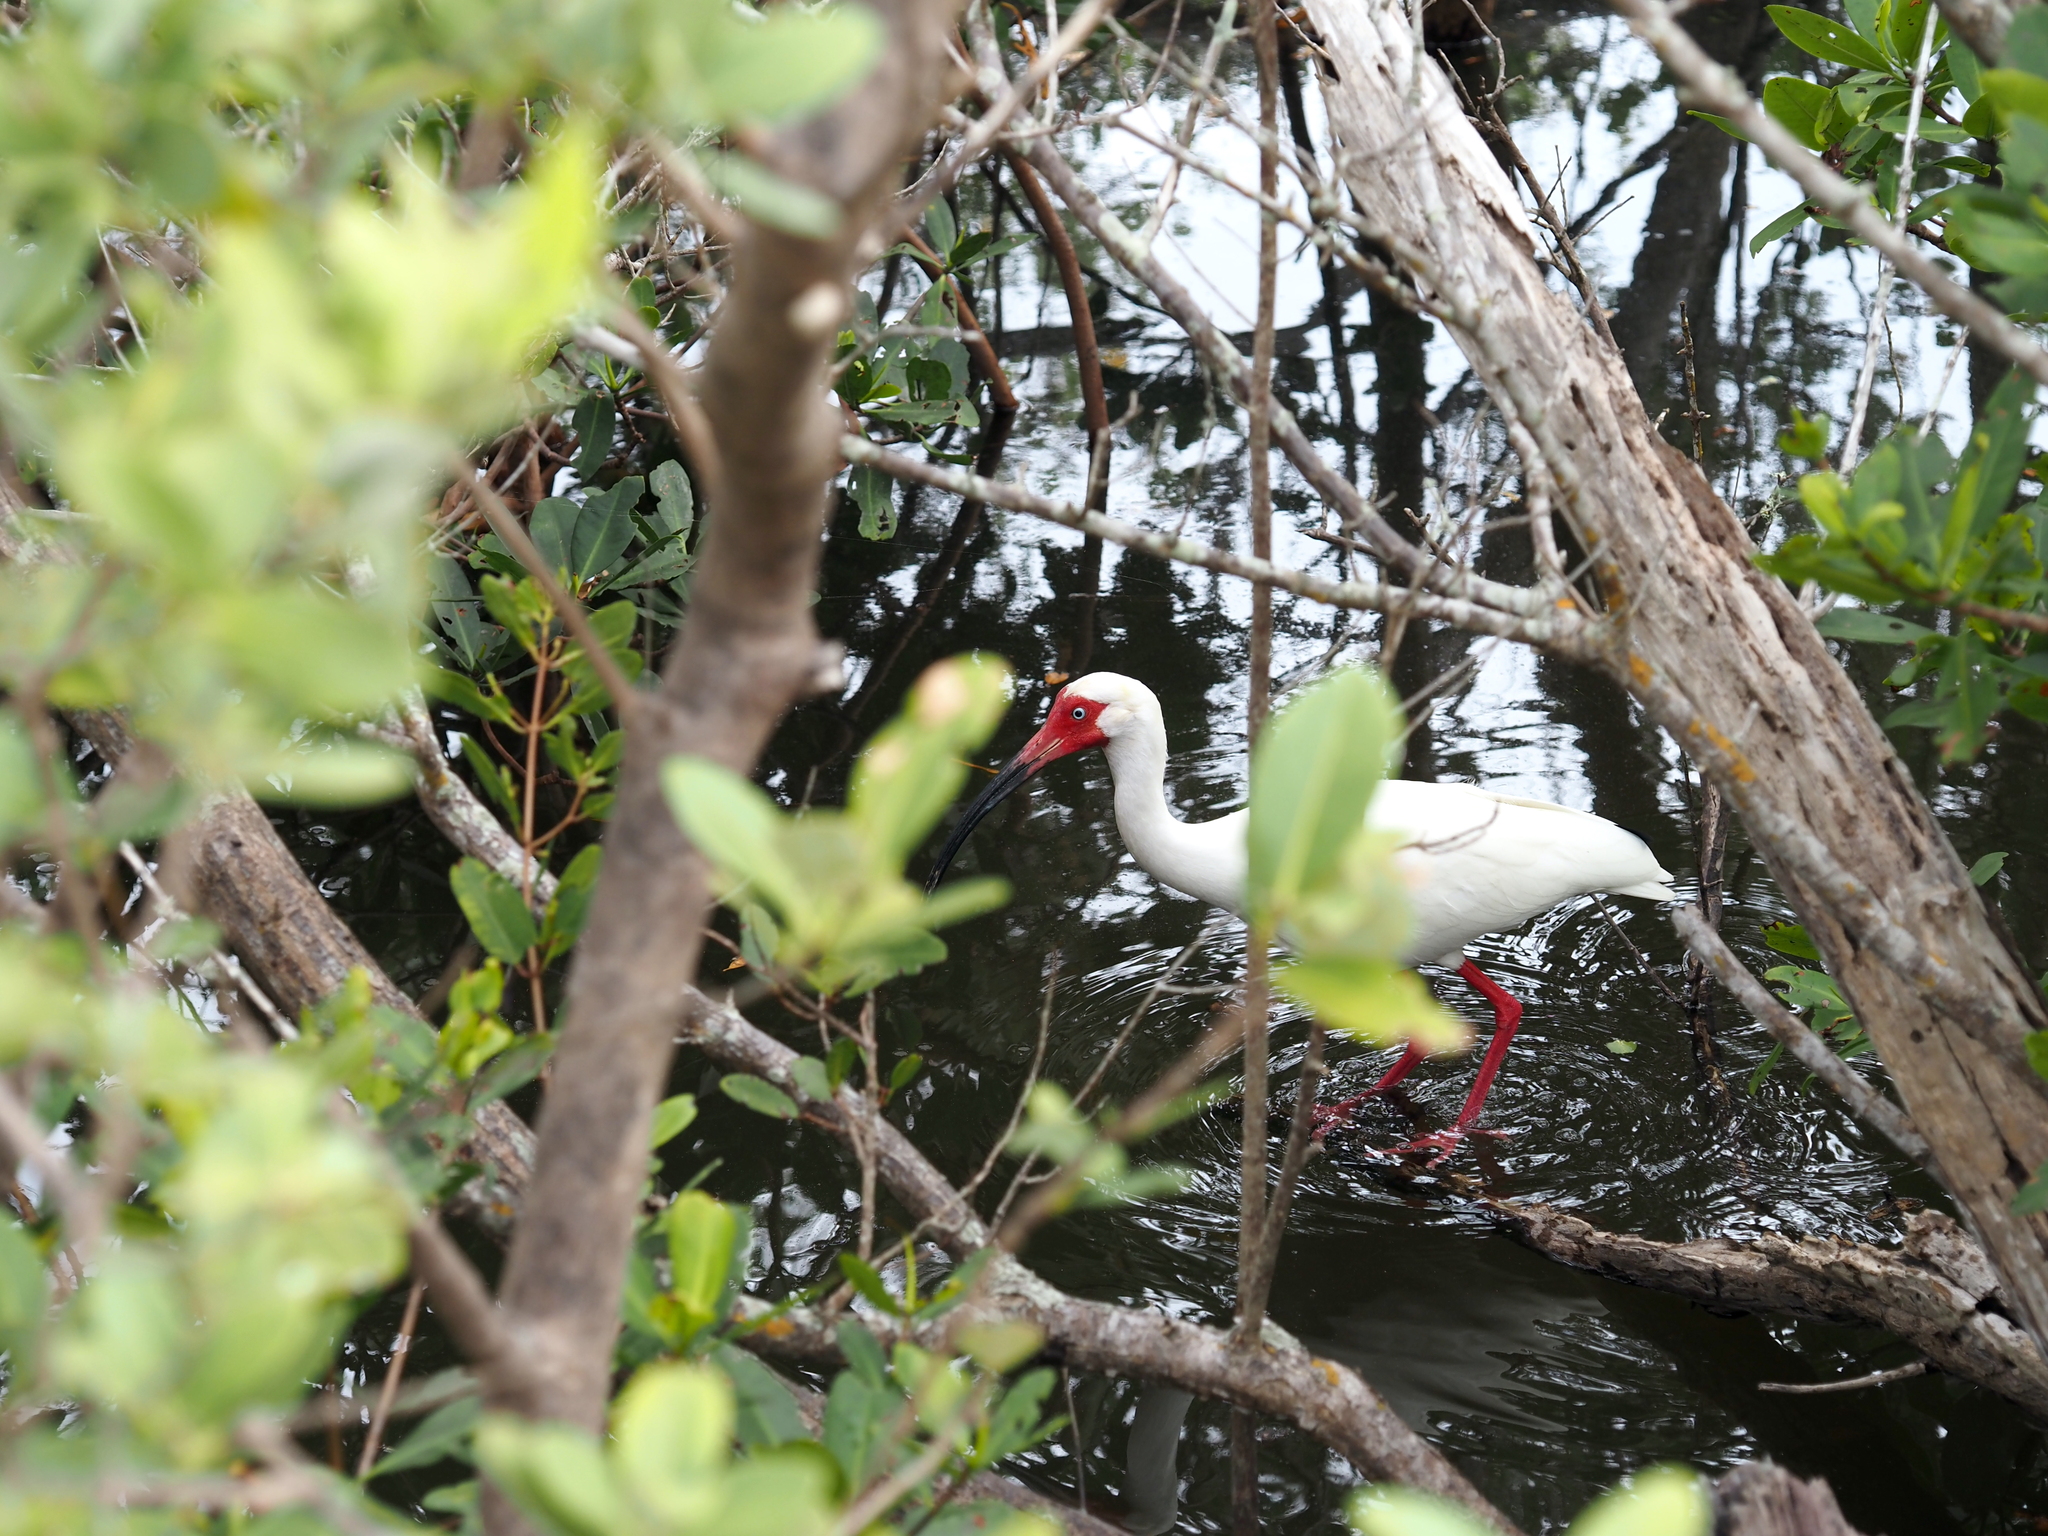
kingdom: Animalia
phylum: Chordata
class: Aves
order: Pelecaniformes
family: Threskiornithidae
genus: Eudocimus
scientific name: Eudocimus albus
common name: White ibis
